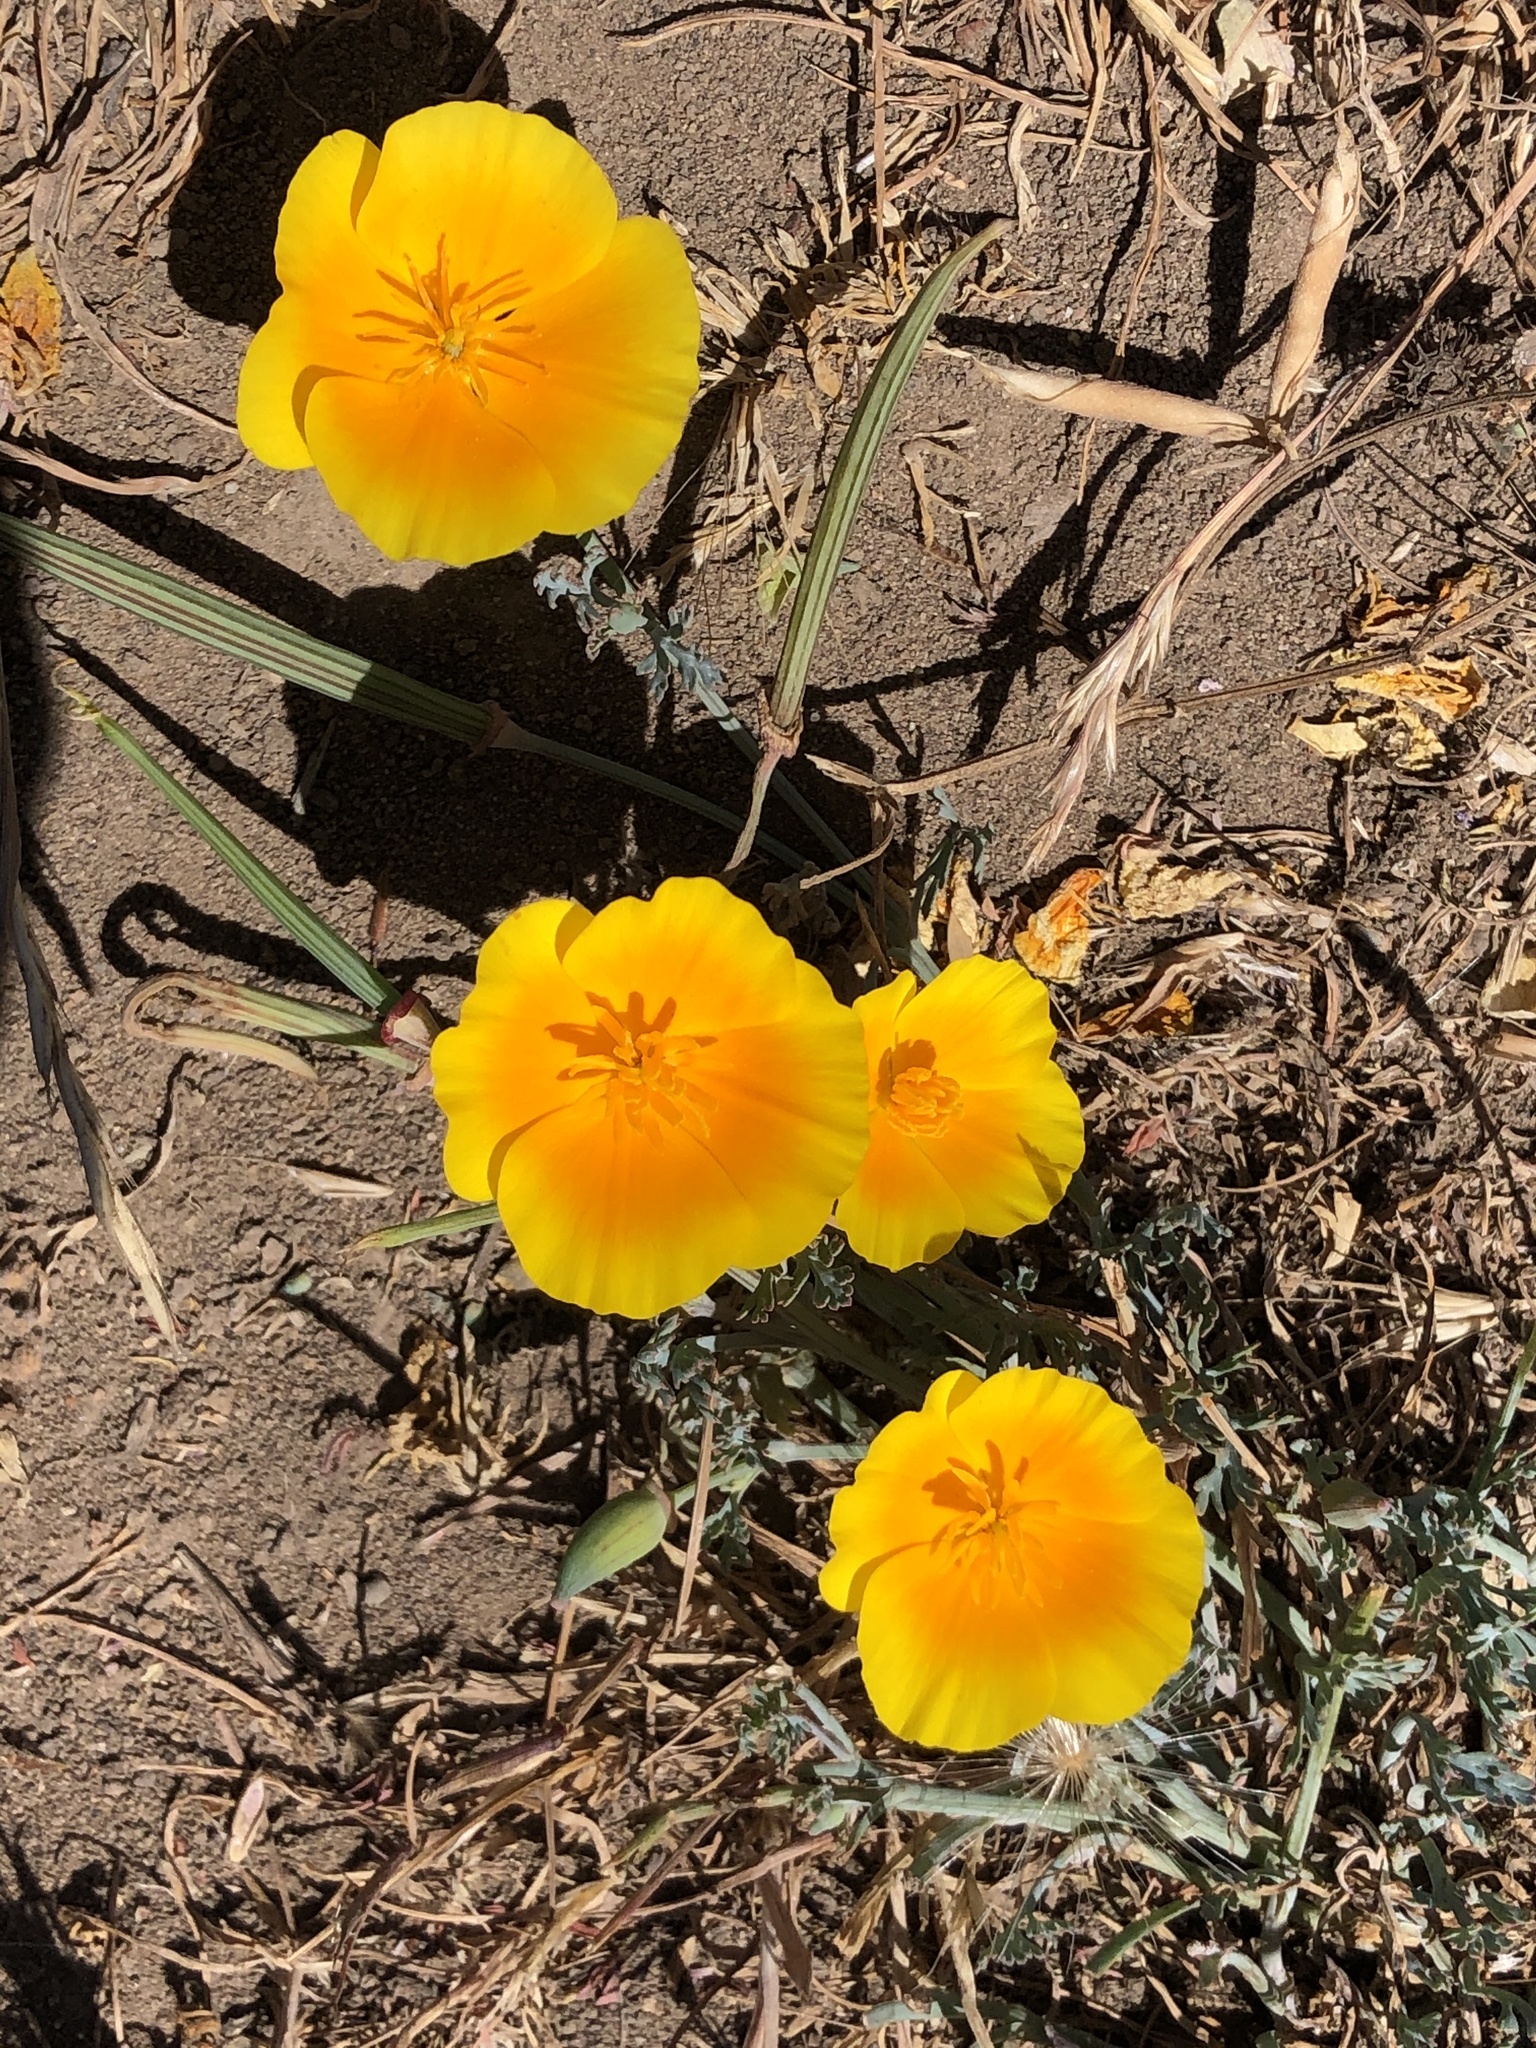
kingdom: Plantae
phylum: Tracheophyta
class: Magnoliopsida
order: Ranunculales
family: Papaveraceae
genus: Eschscholzia
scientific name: Eschscholzia californica
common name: California poppy
